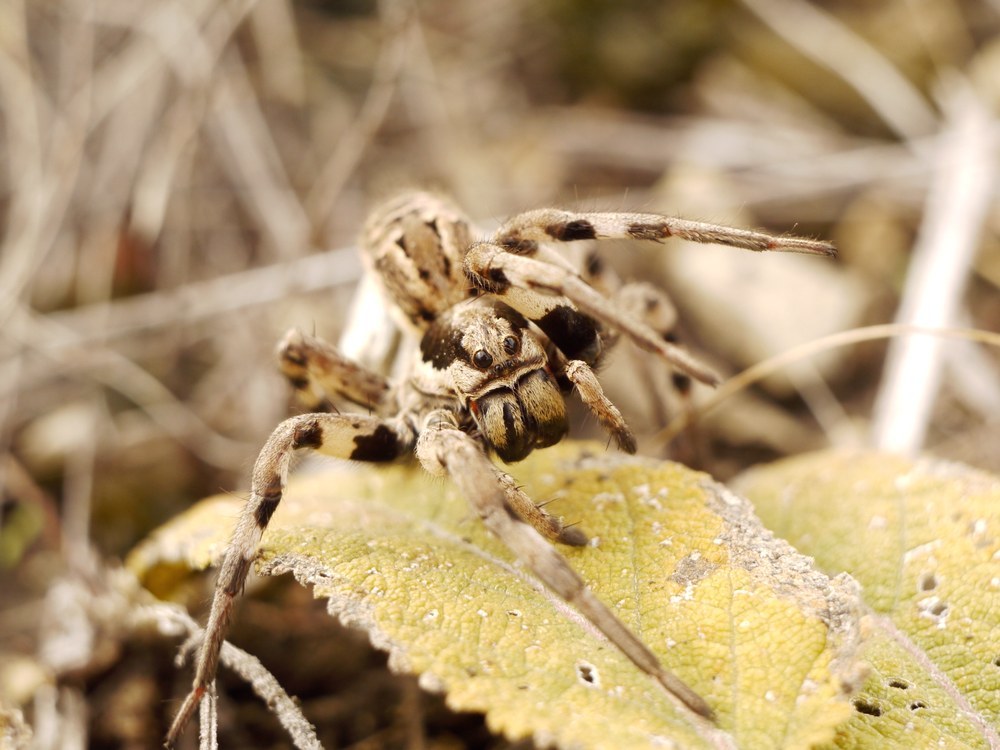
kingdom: Animalia
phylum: Arthropoda
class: Arachnida
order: Araneae
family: Lycosidae
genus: Lycosa
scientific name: Lycosa praegrandis
